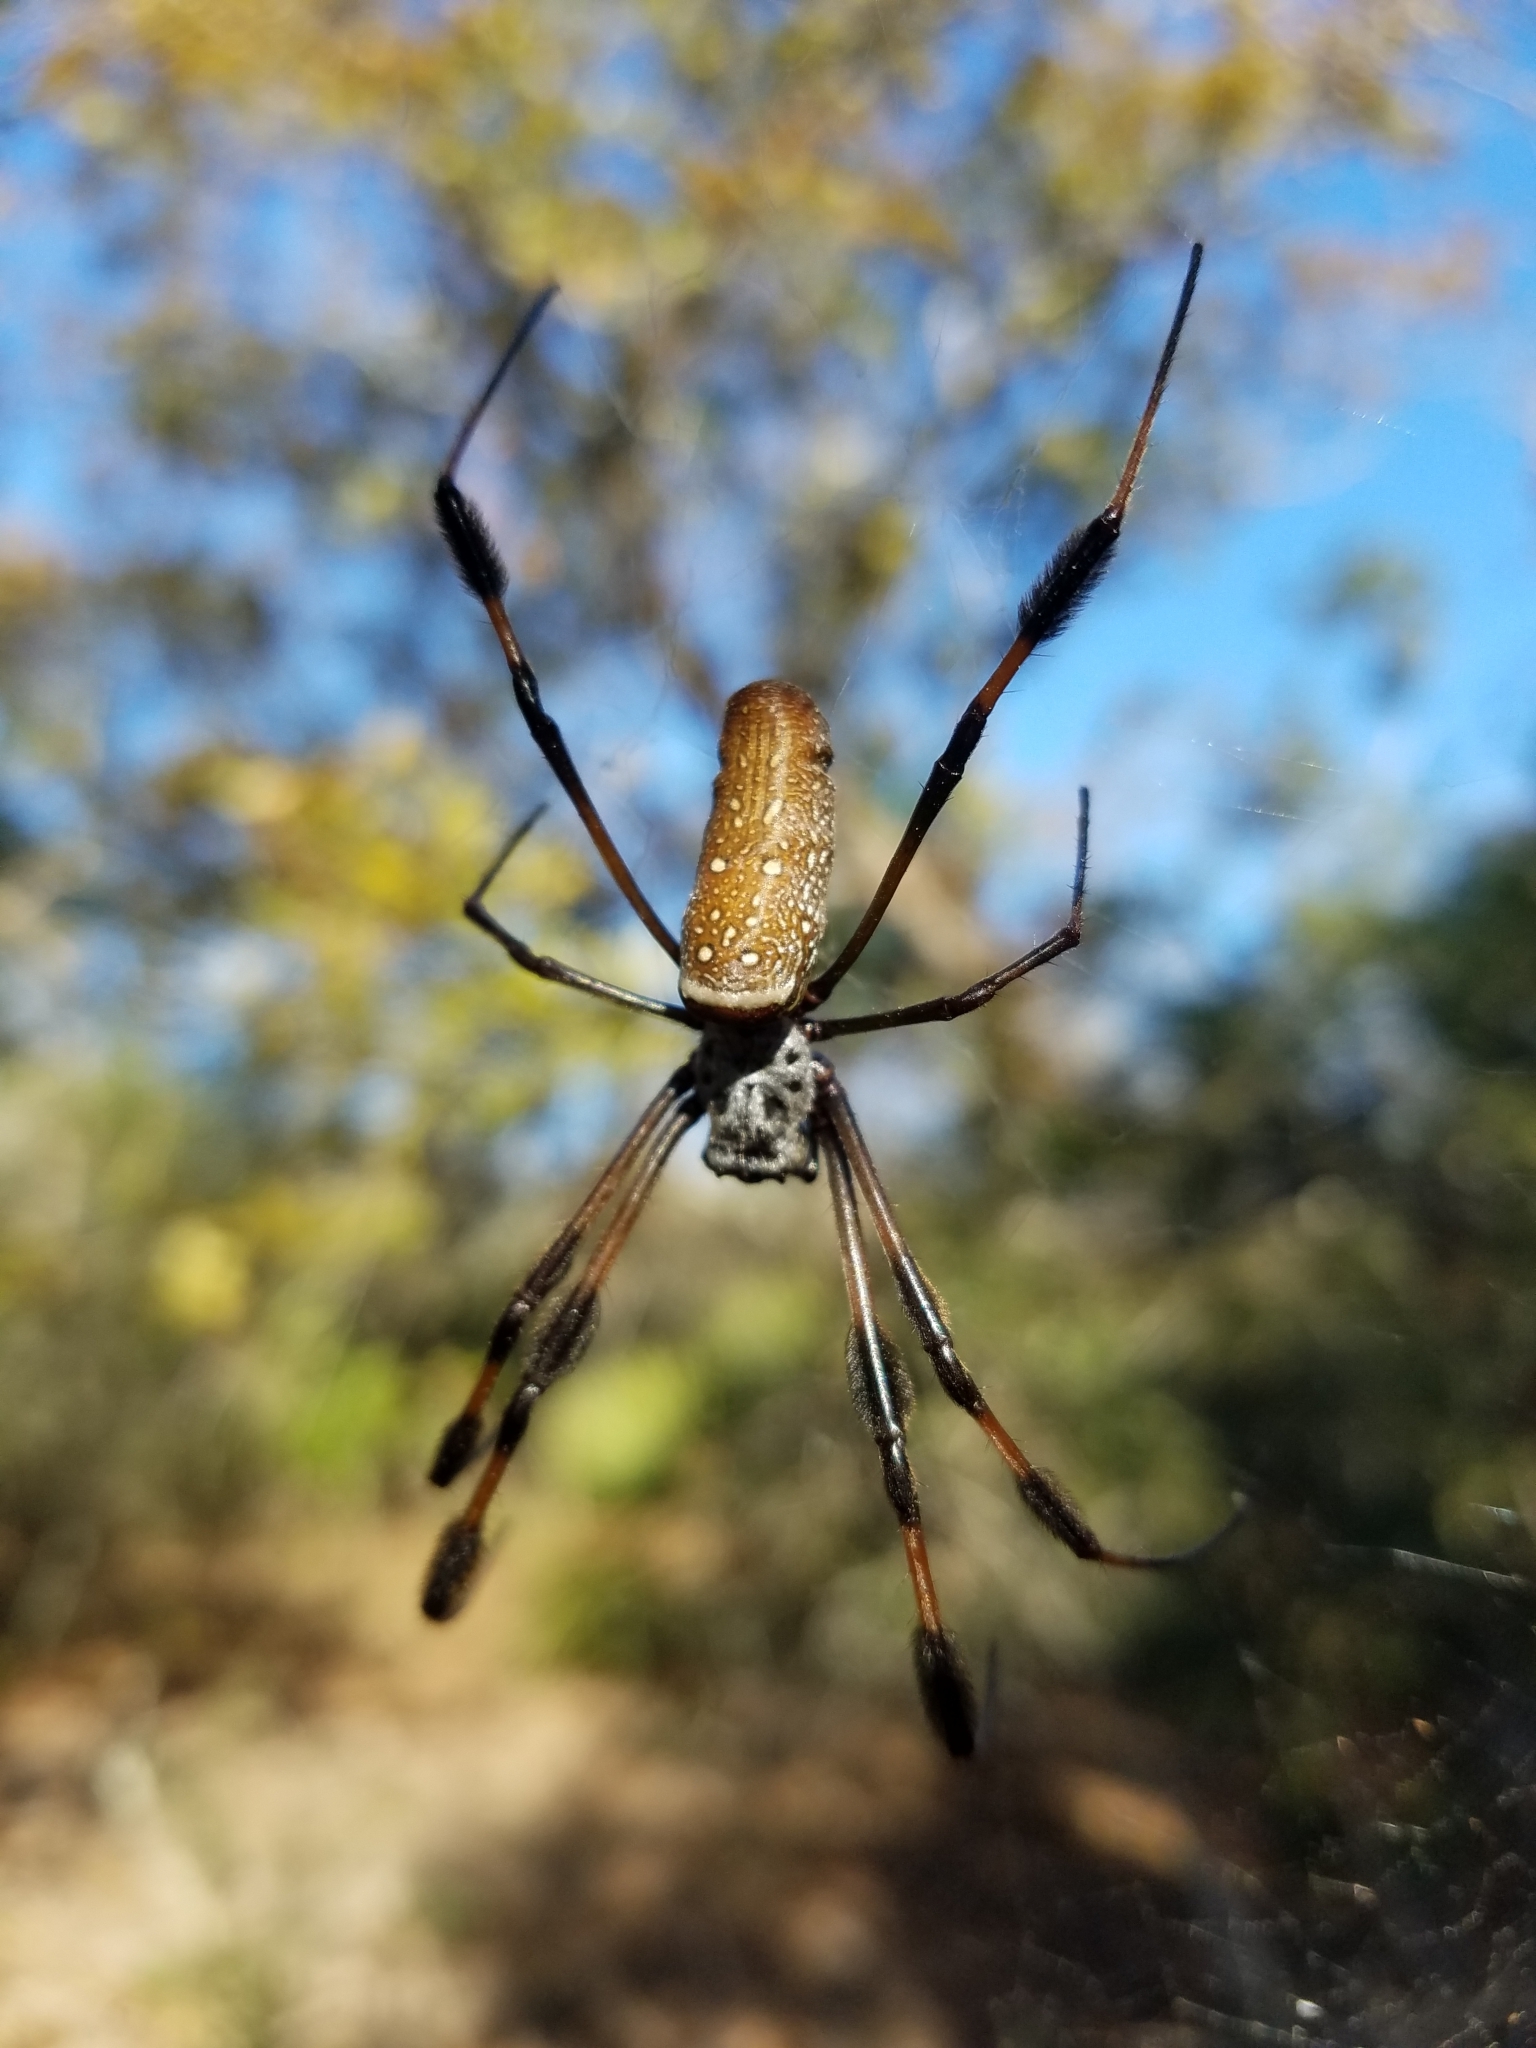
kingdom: Animalia
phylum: Arthropoda
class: Arachnida
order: Araneae
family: Araneidae
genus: Trichonephila
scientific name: Trichonephila clavipes
